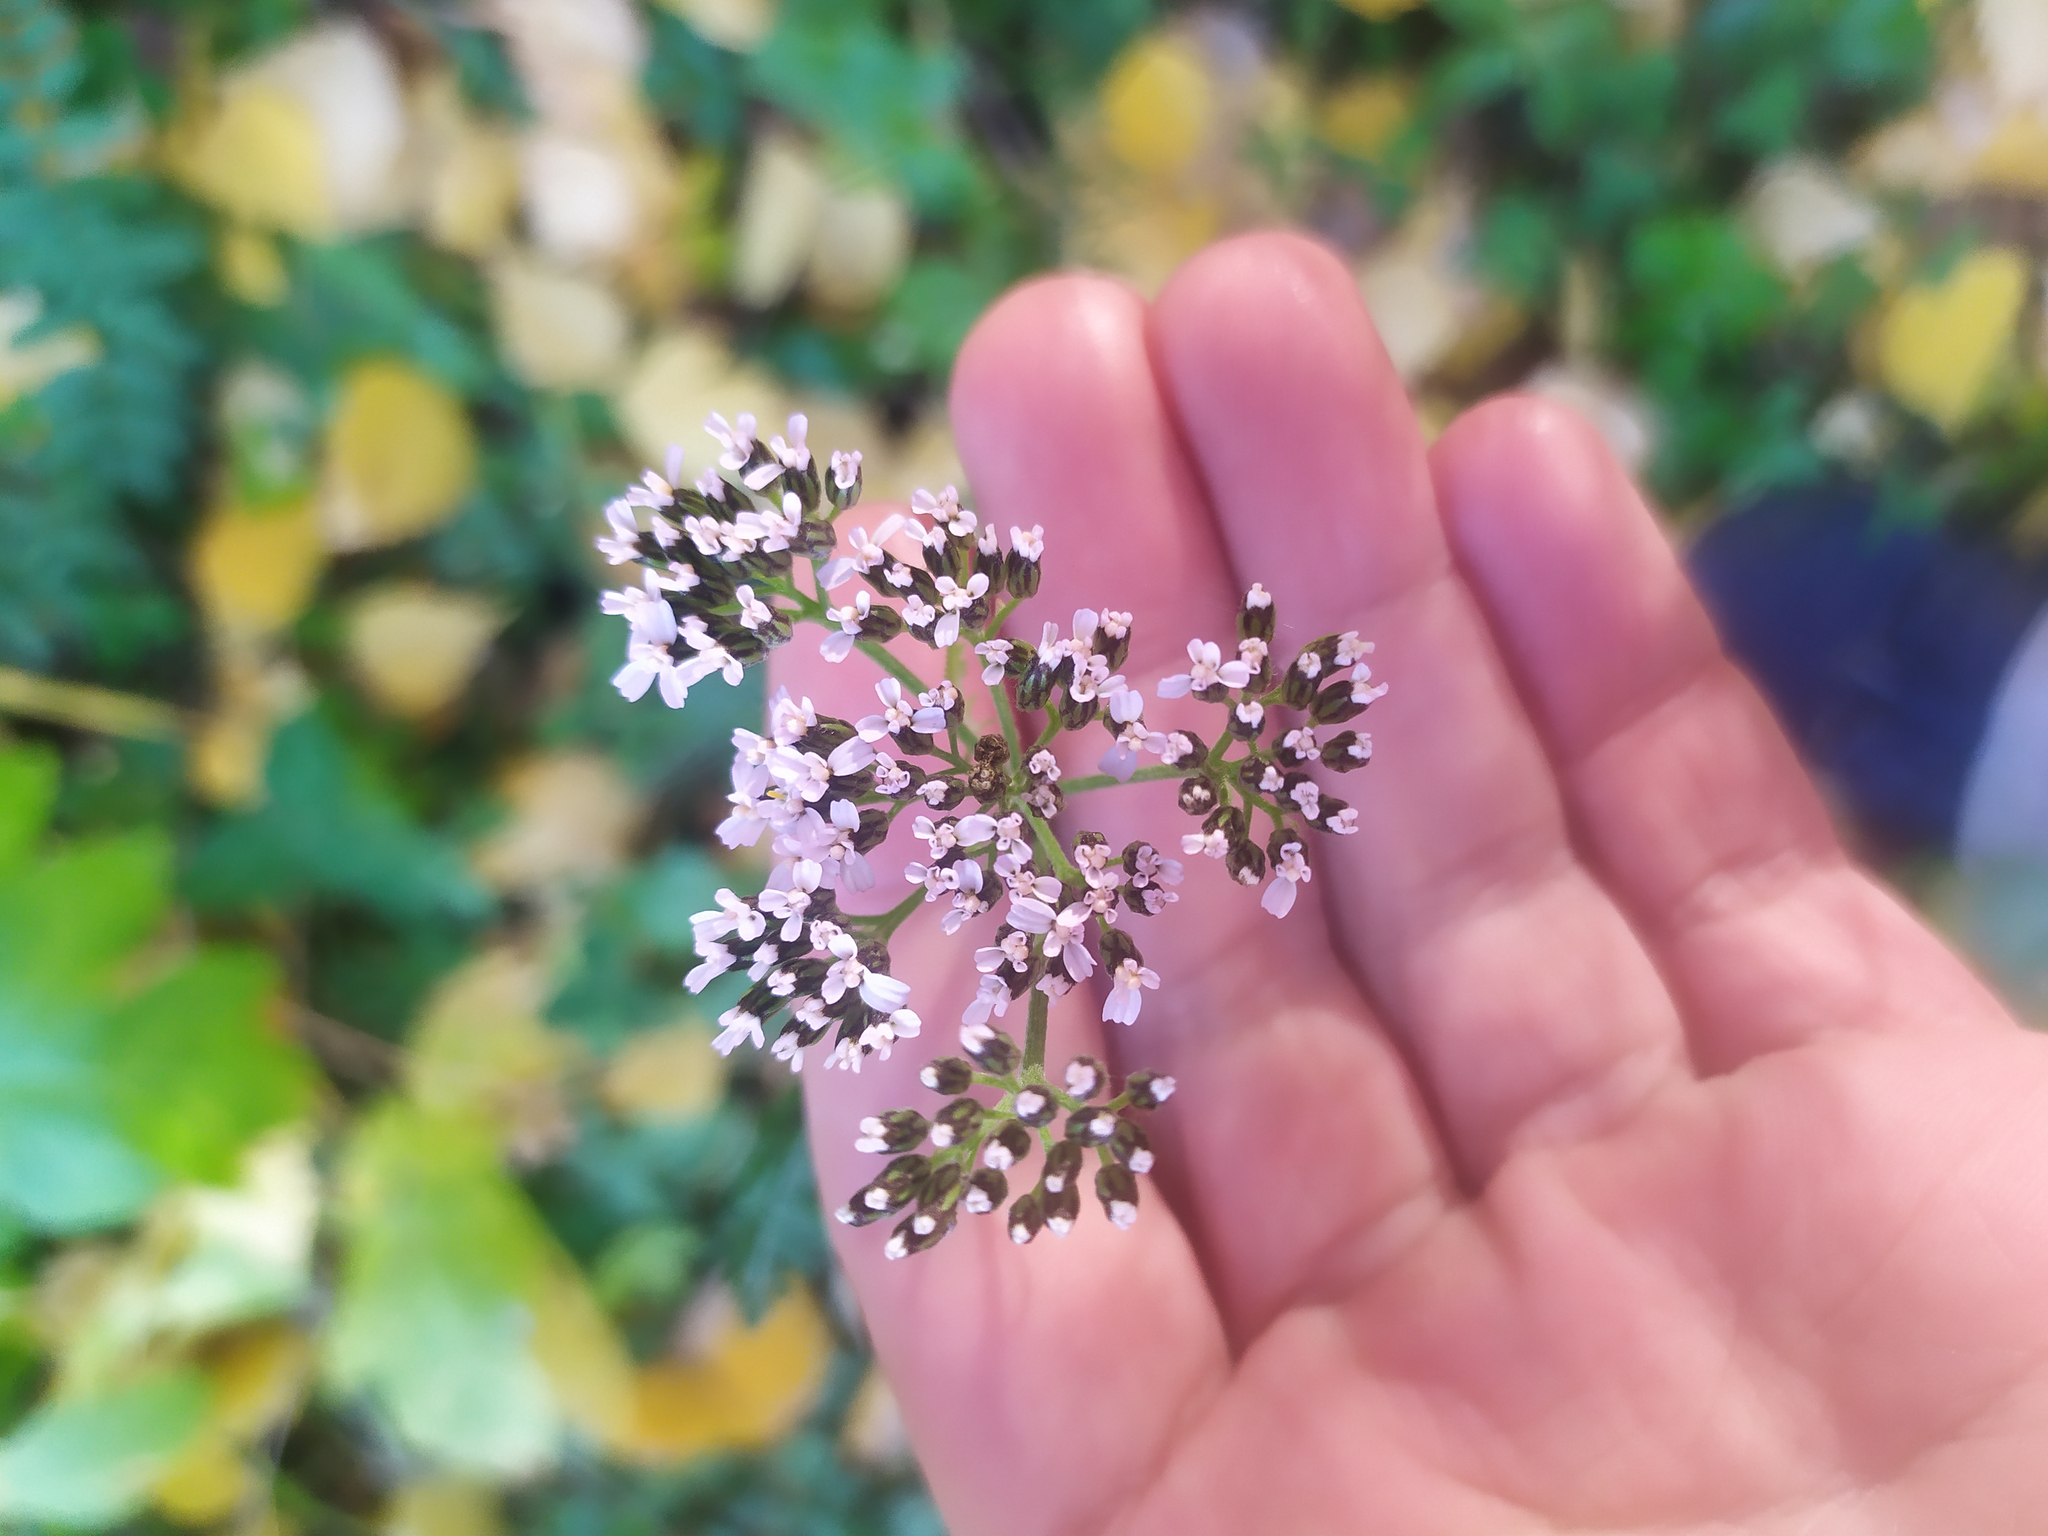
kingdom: Plantae
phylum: Tracheophyta
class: Magnoliopsida
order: Lamiales
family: Lamiaceae
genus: Origanum
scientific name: Origanum vulgare
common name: Wild marjoram
